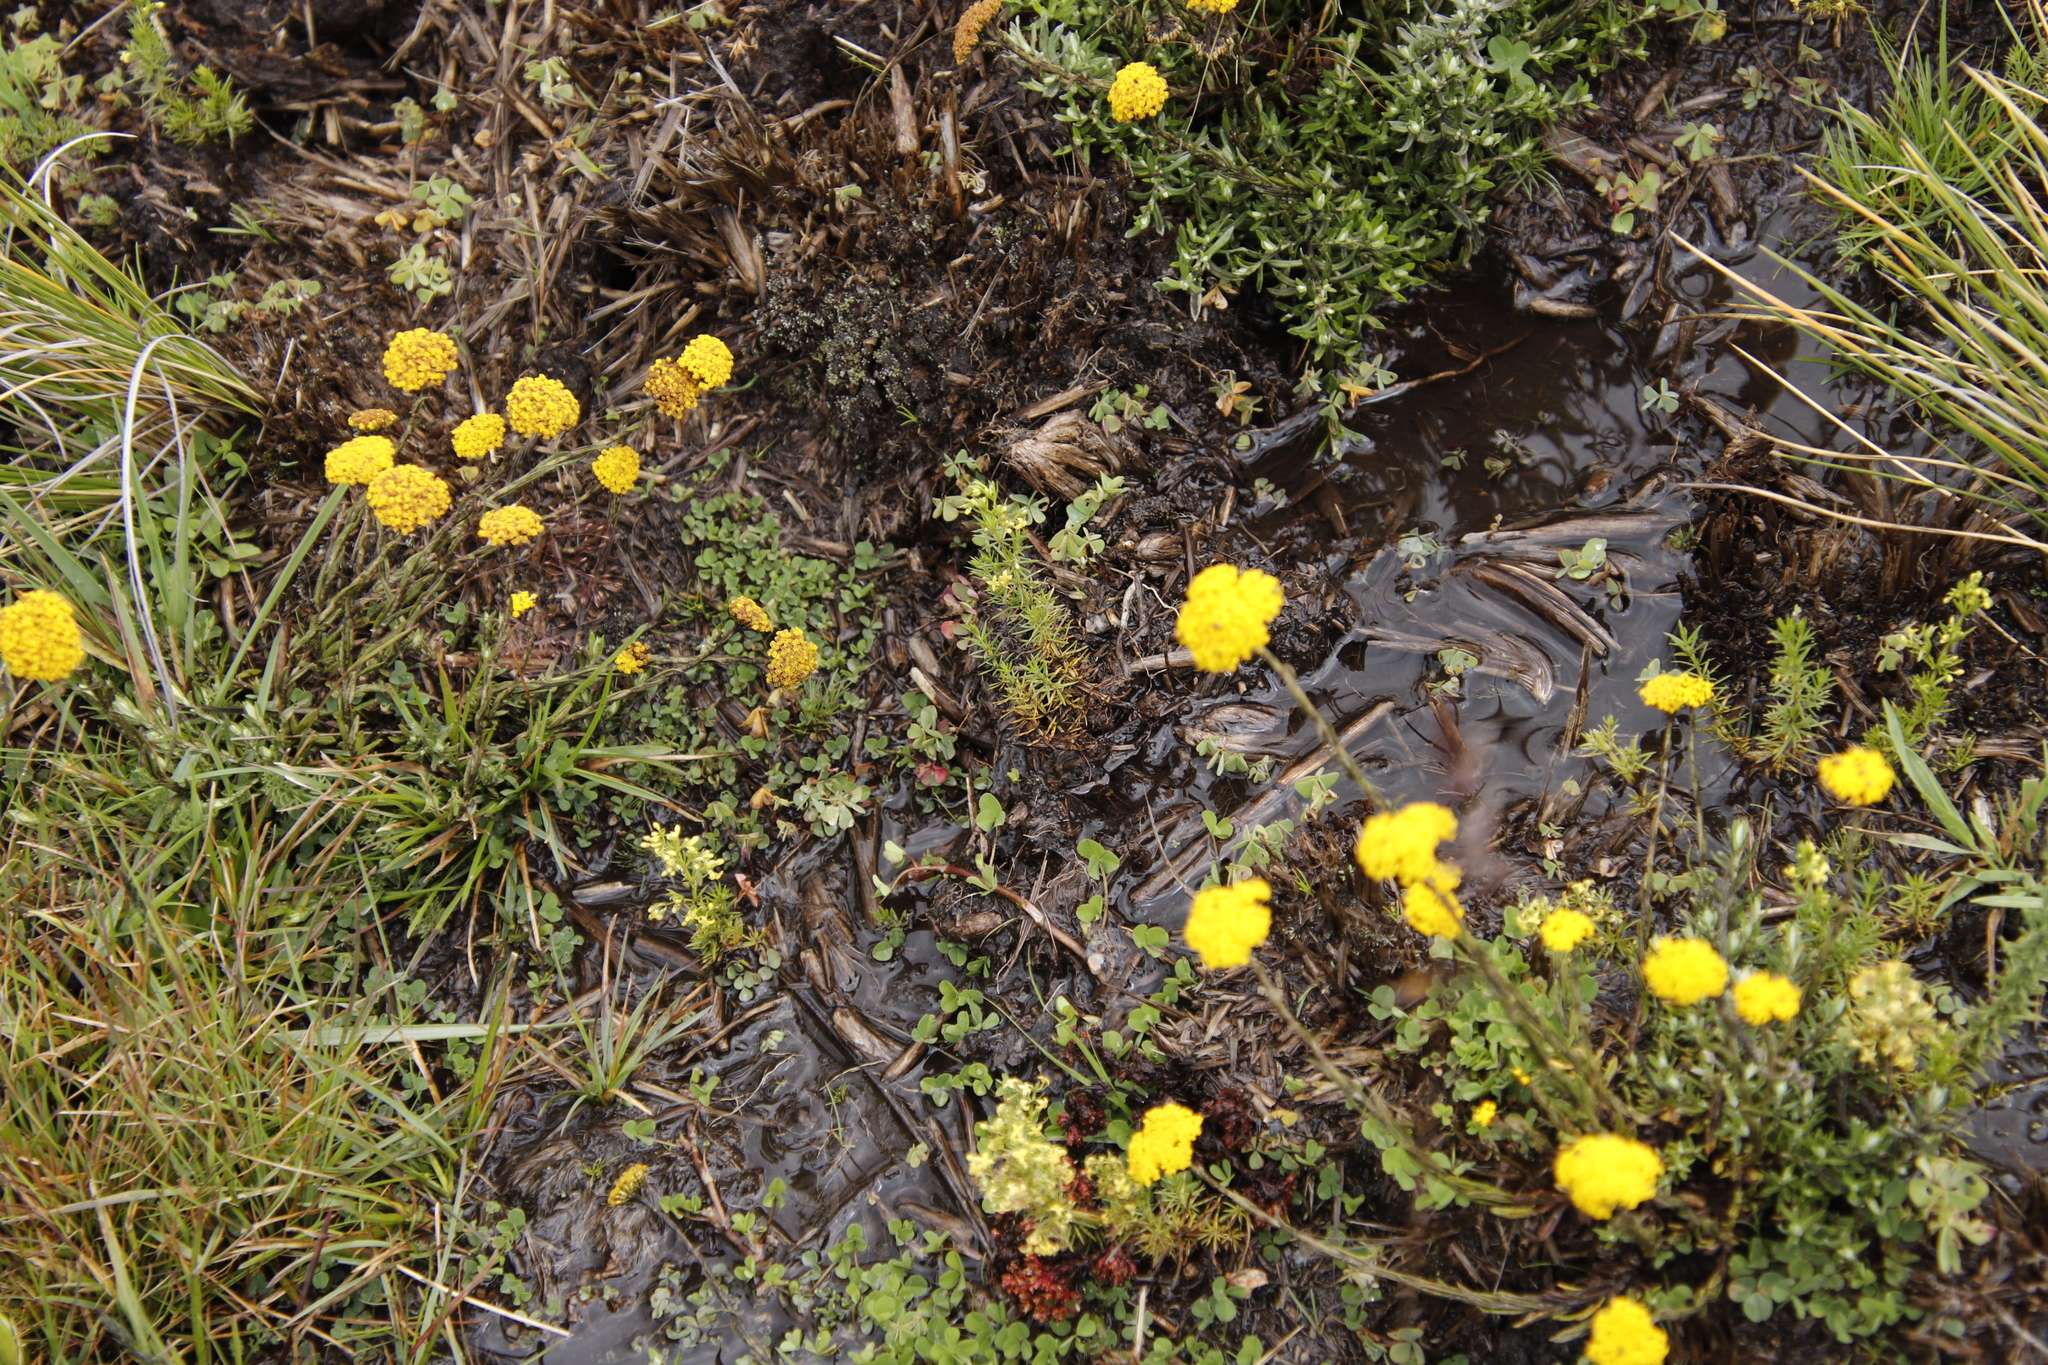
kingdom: Plantae
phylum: Tracheophyta
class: Magnoliopsida
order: Gentianales
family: Rubiaceae
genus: Galium
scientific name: Galium capense
